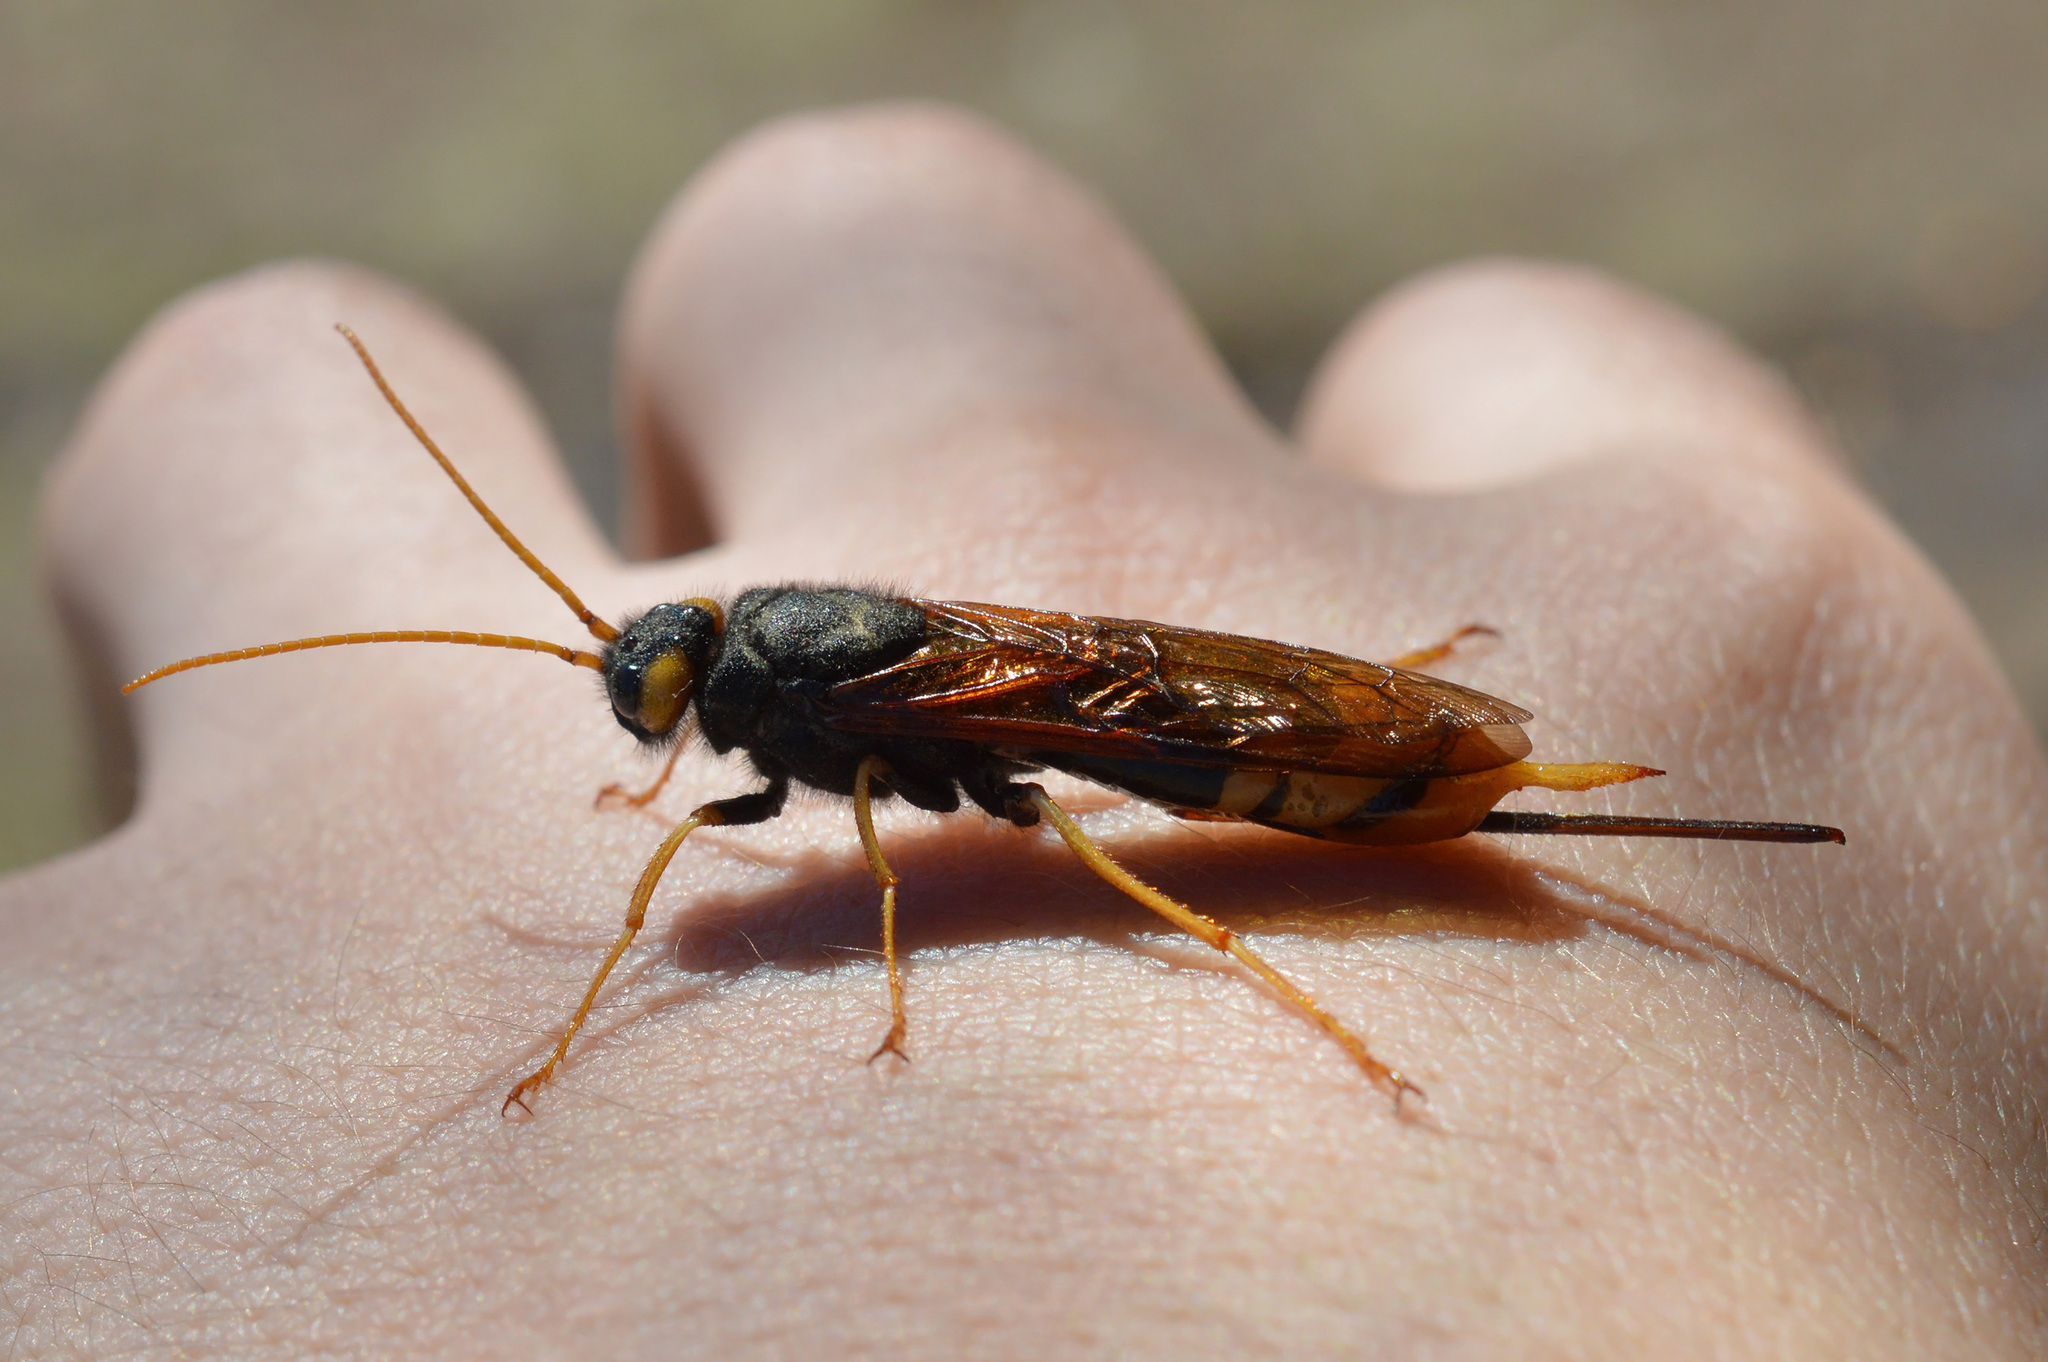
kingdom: Animalia
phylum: Arthropoda
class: Insecta
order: Hymenoptera
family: Siricidae
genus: Urocerus
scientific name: Urocerus gigas
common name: Giant woodwasp
